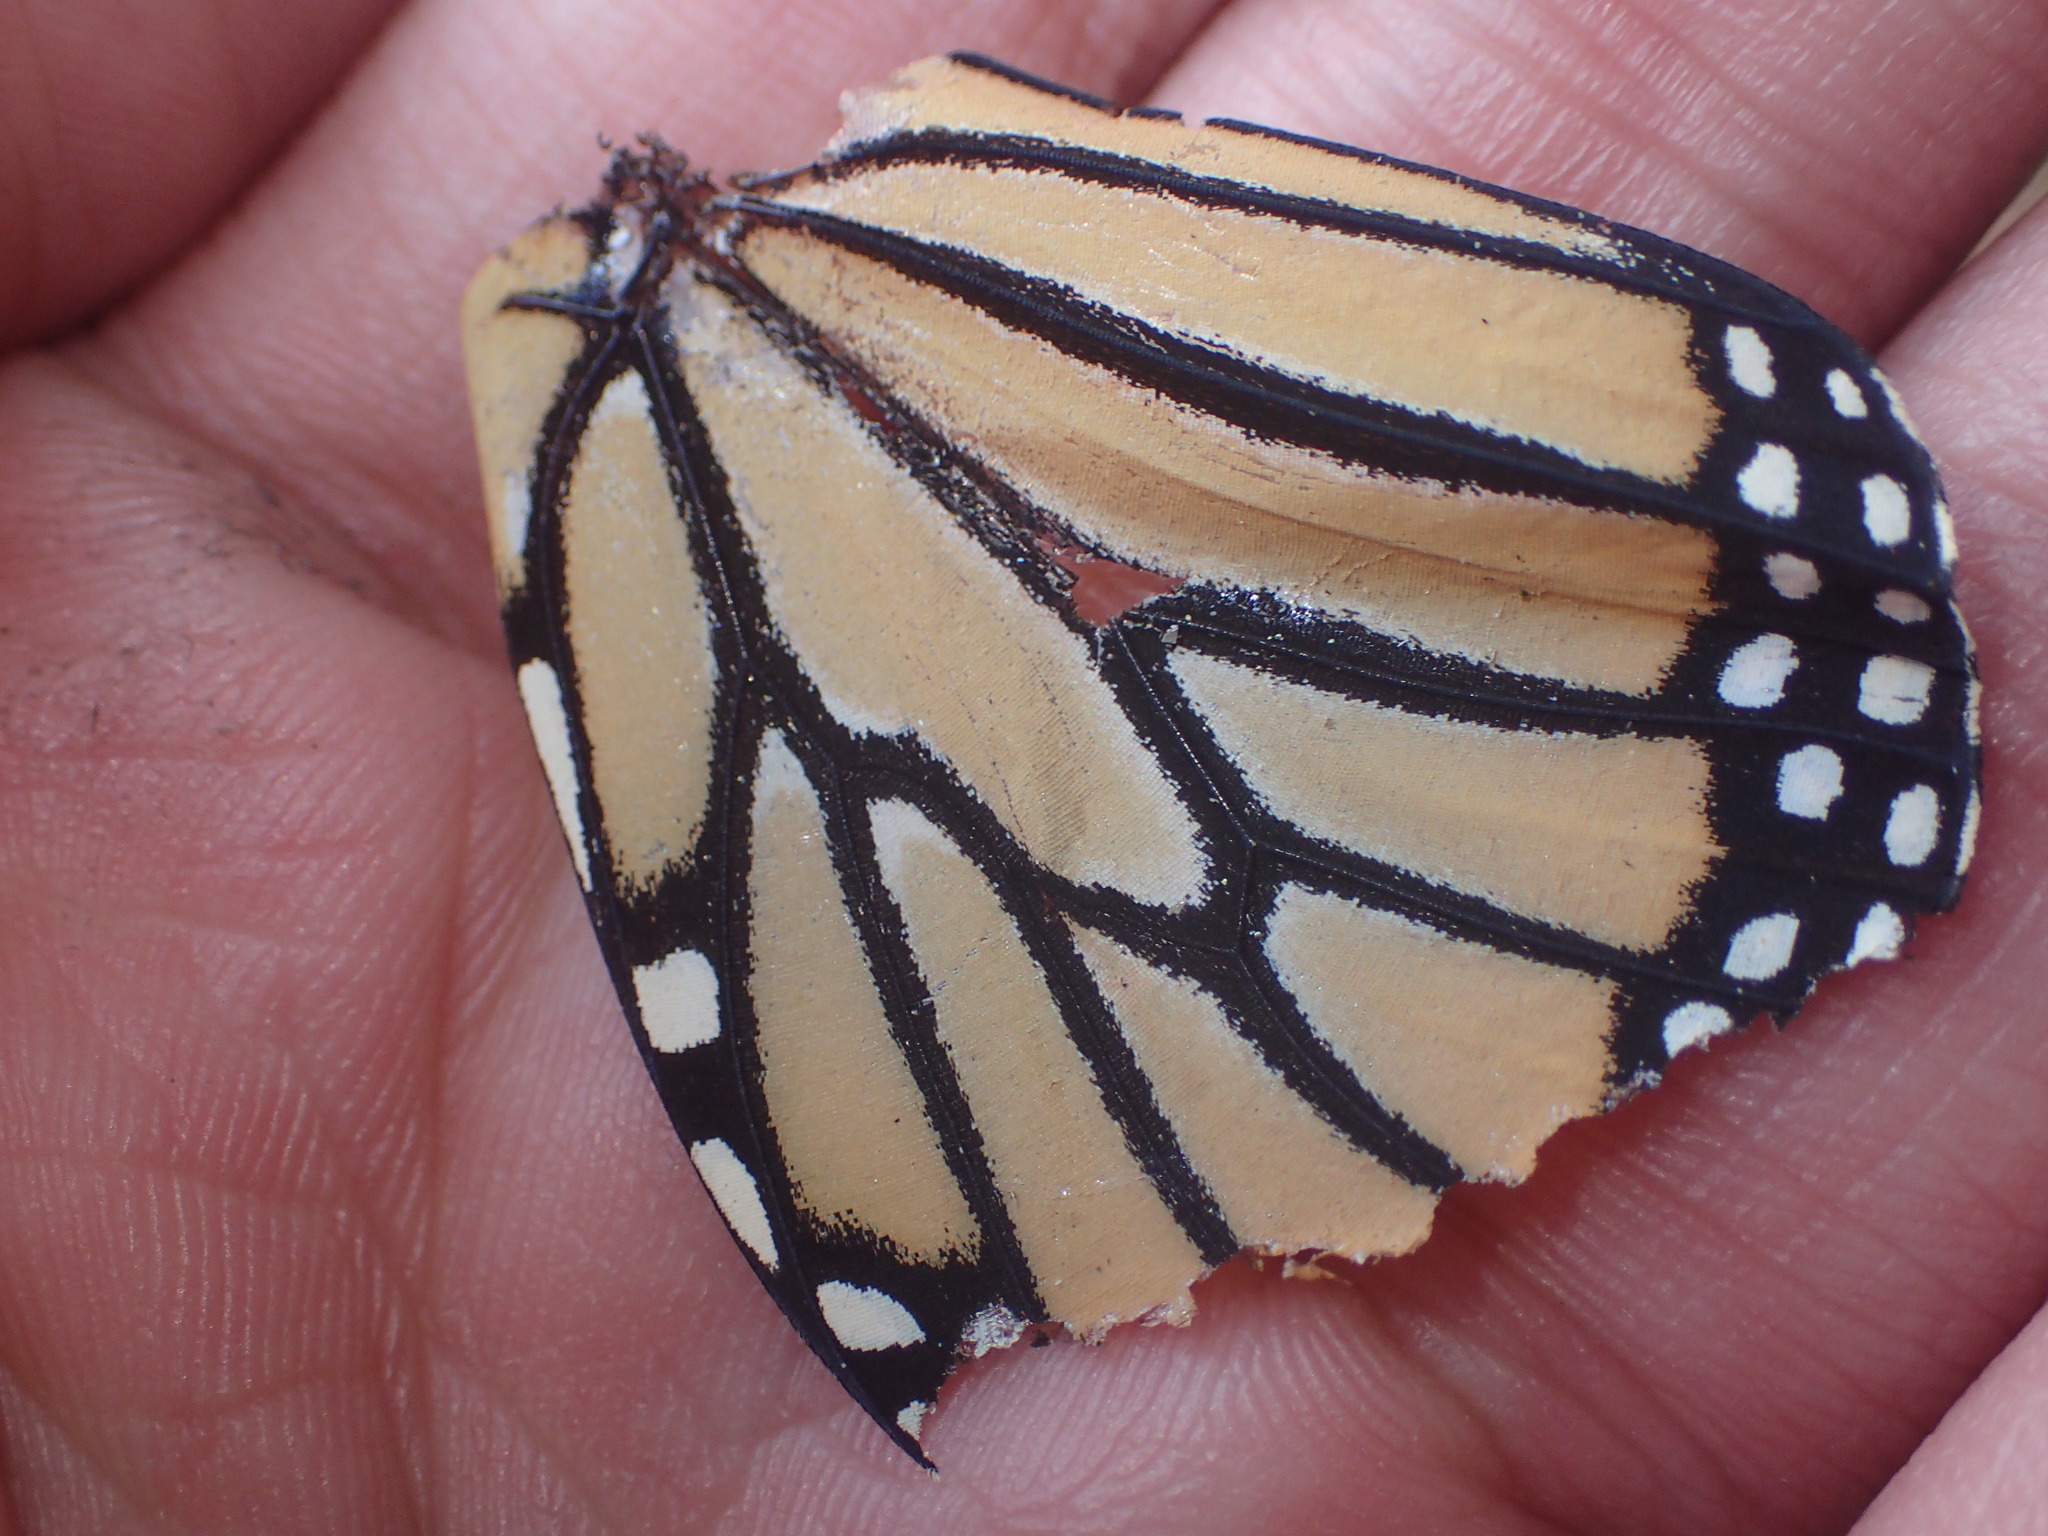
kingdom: Animalia
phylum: Arthropoda
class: Insecta
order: Lepidoptera
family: Nymphalidae
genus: Danaus
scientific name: Danaus plexippus
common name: Monarch
